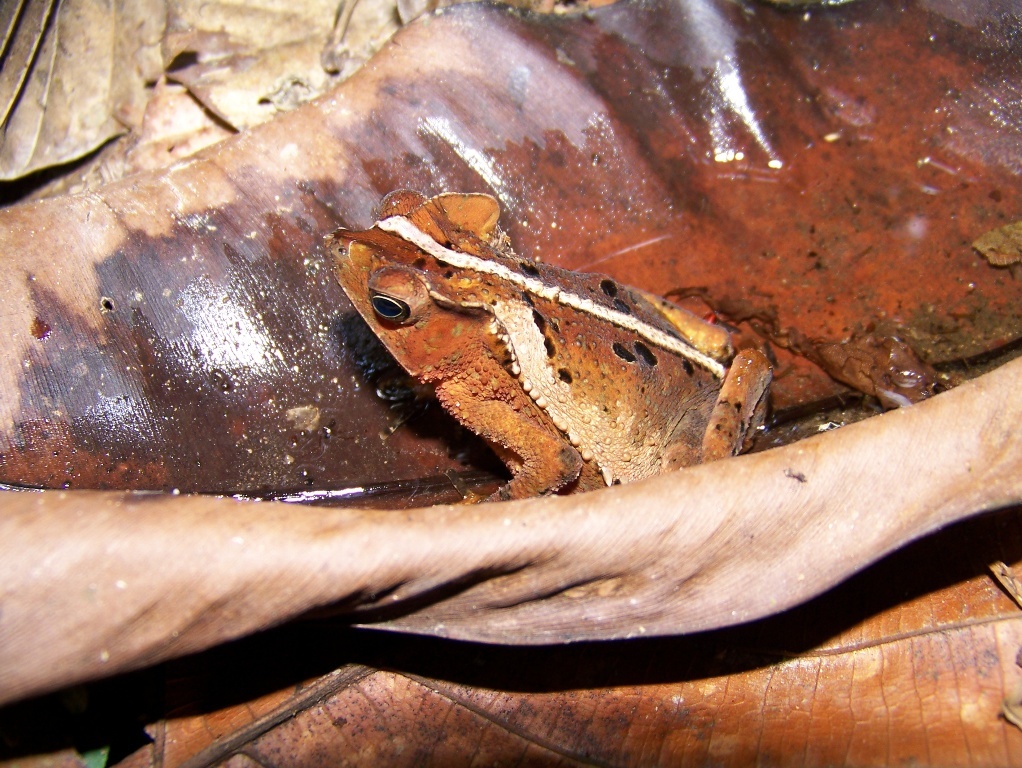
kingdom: Animalia
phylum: Chordata
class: Amphibia
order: Anura
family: Bufonidae
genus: Rhinella
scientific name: Rhinella margaritifera
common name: Mitred toad
